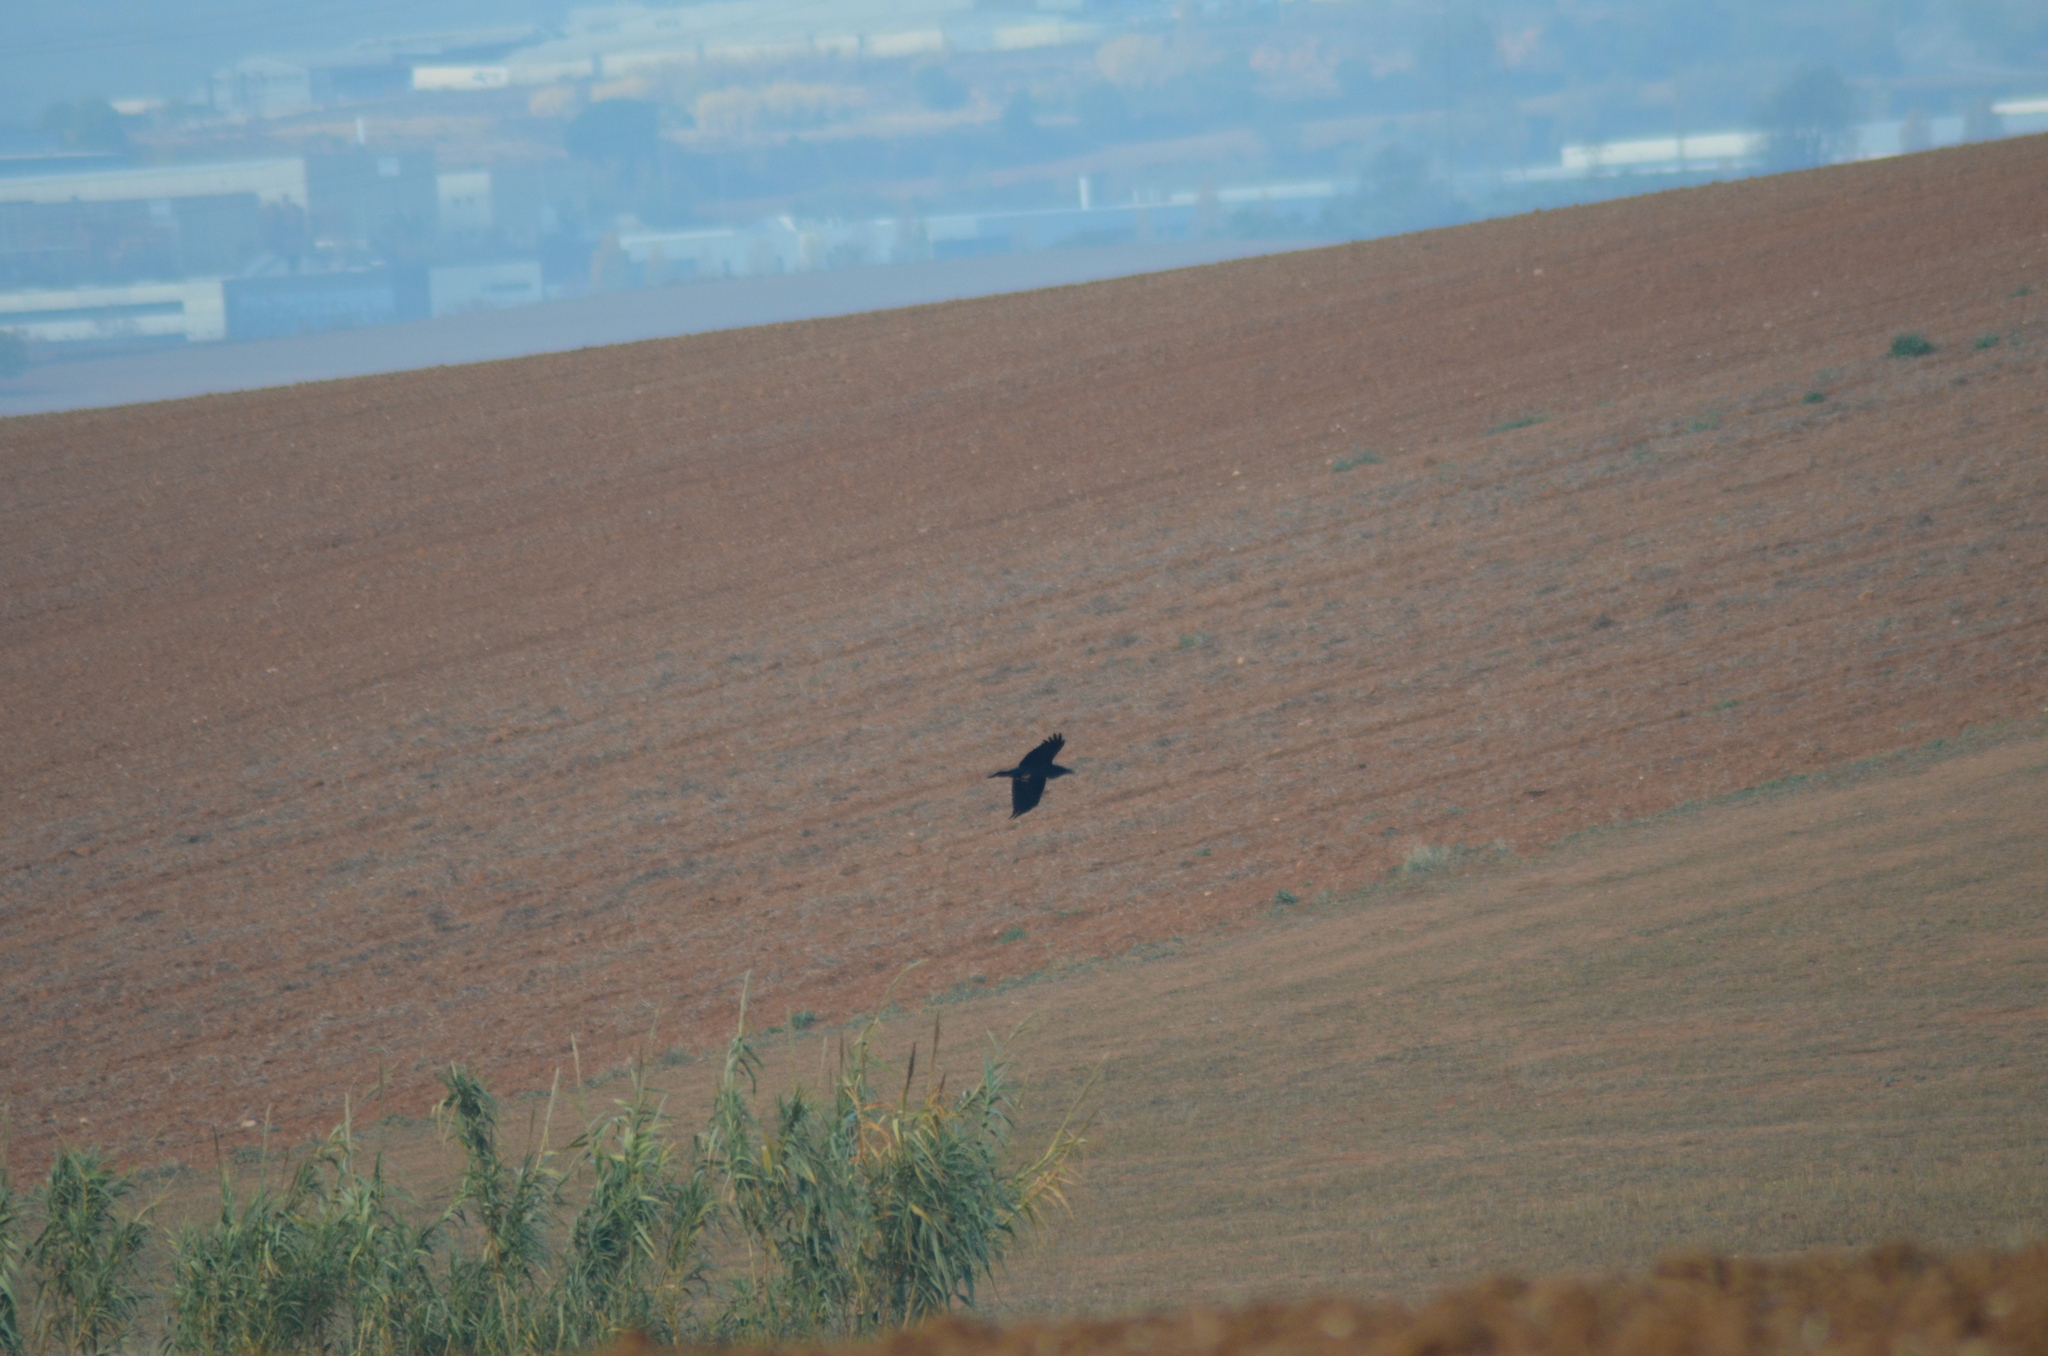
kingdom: Animalia
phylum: Chordata
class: Aves
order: Passeriformes
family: Corvidae
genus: Corvus
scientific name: Corvus corax
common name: Common raven
